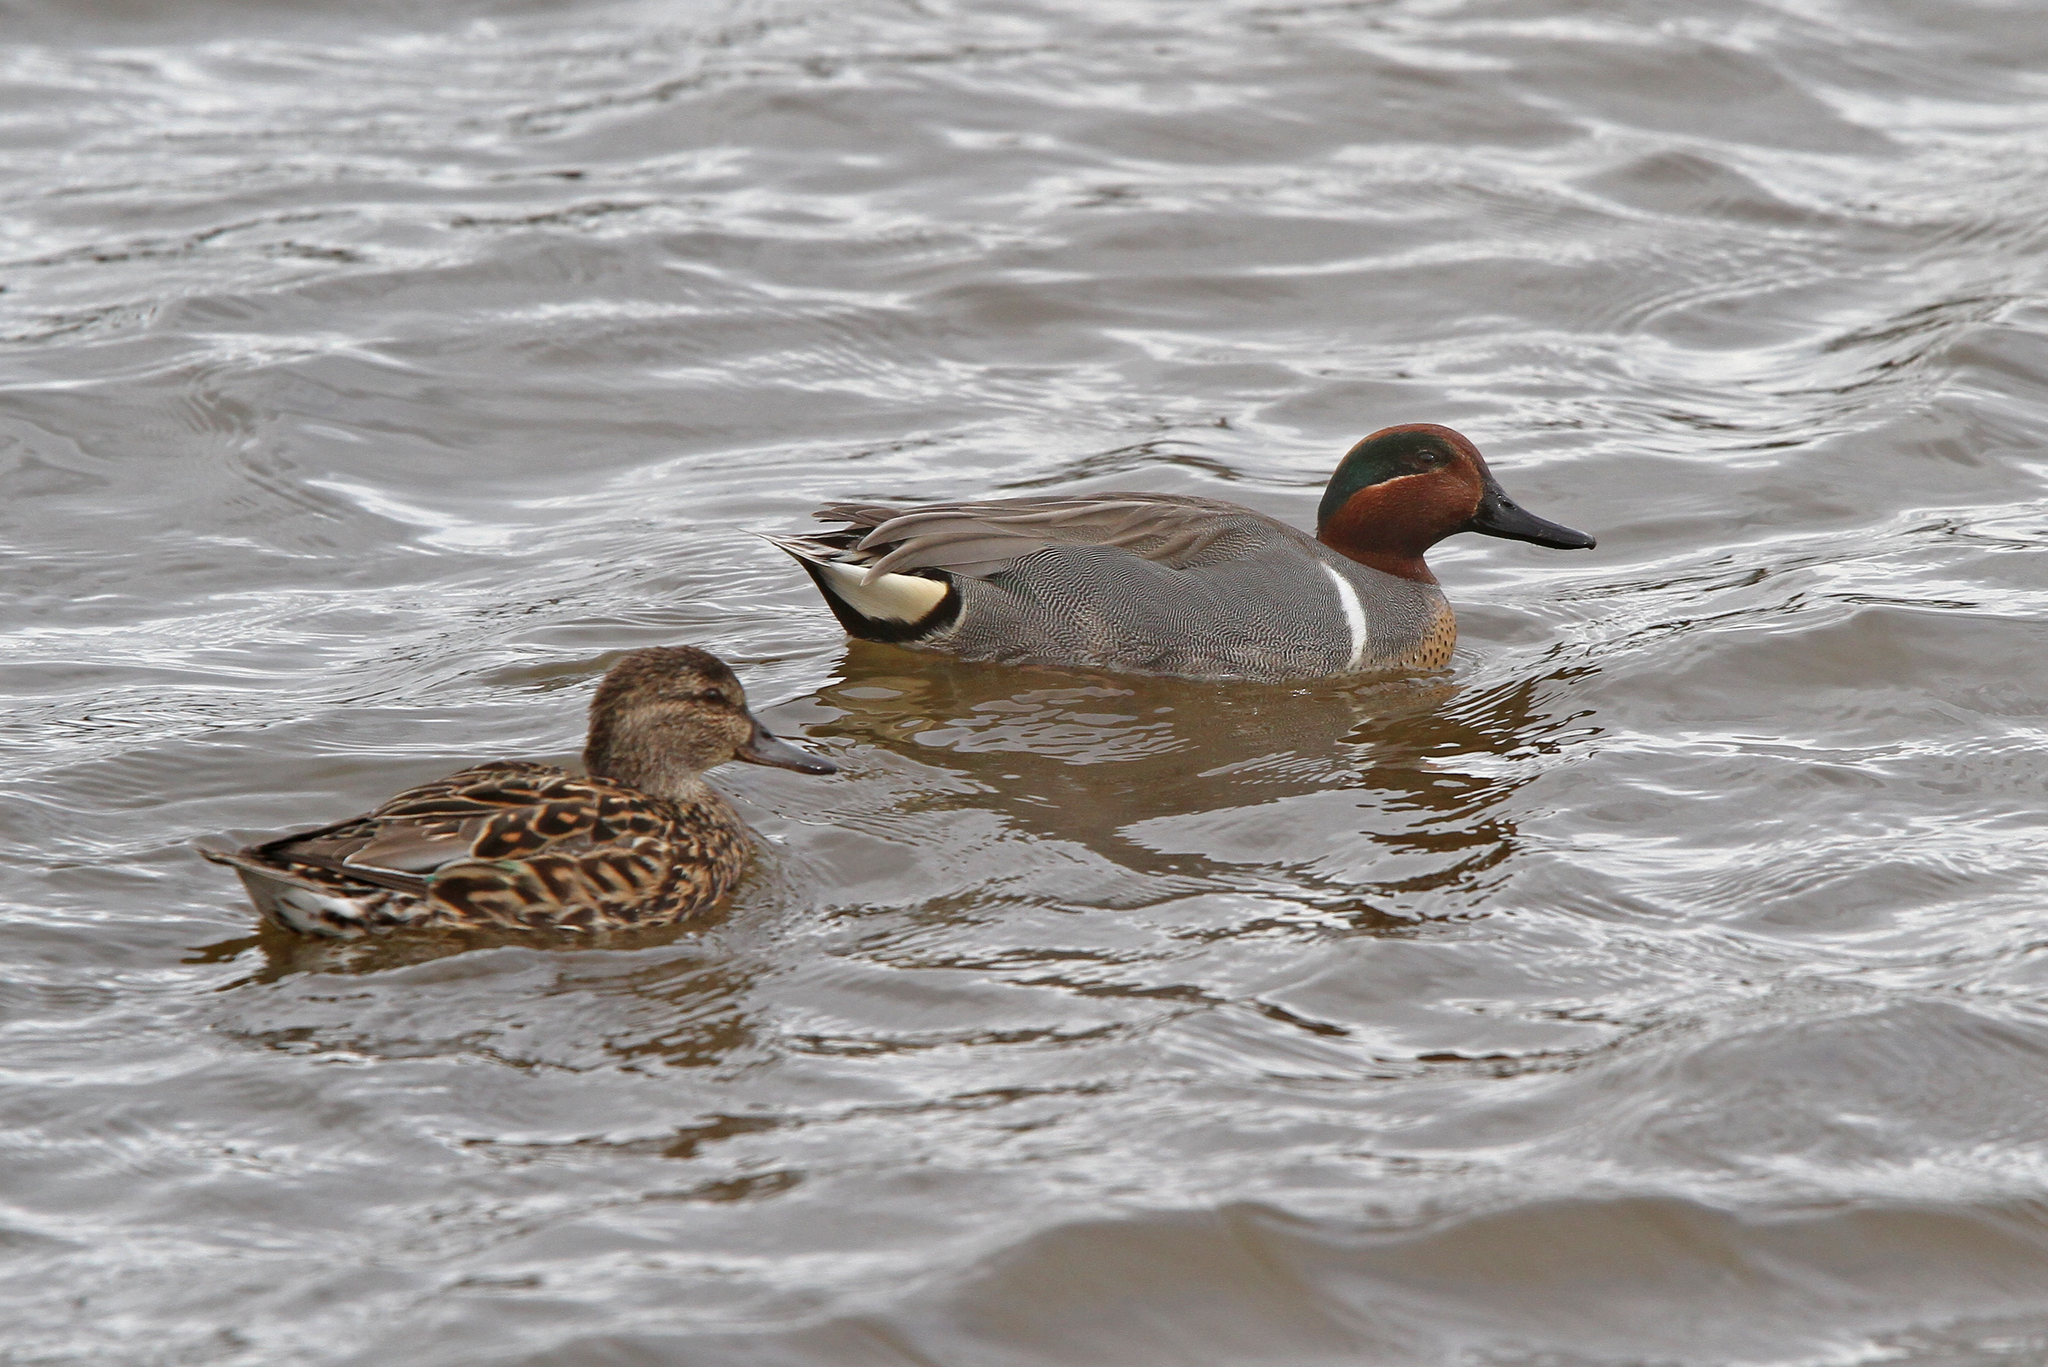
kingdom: Animalia
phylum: Chordata
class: Aves
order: Anseriformes
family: Anatidae
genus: Anas
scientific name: Anas carolinensis
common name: Green-winged teal
